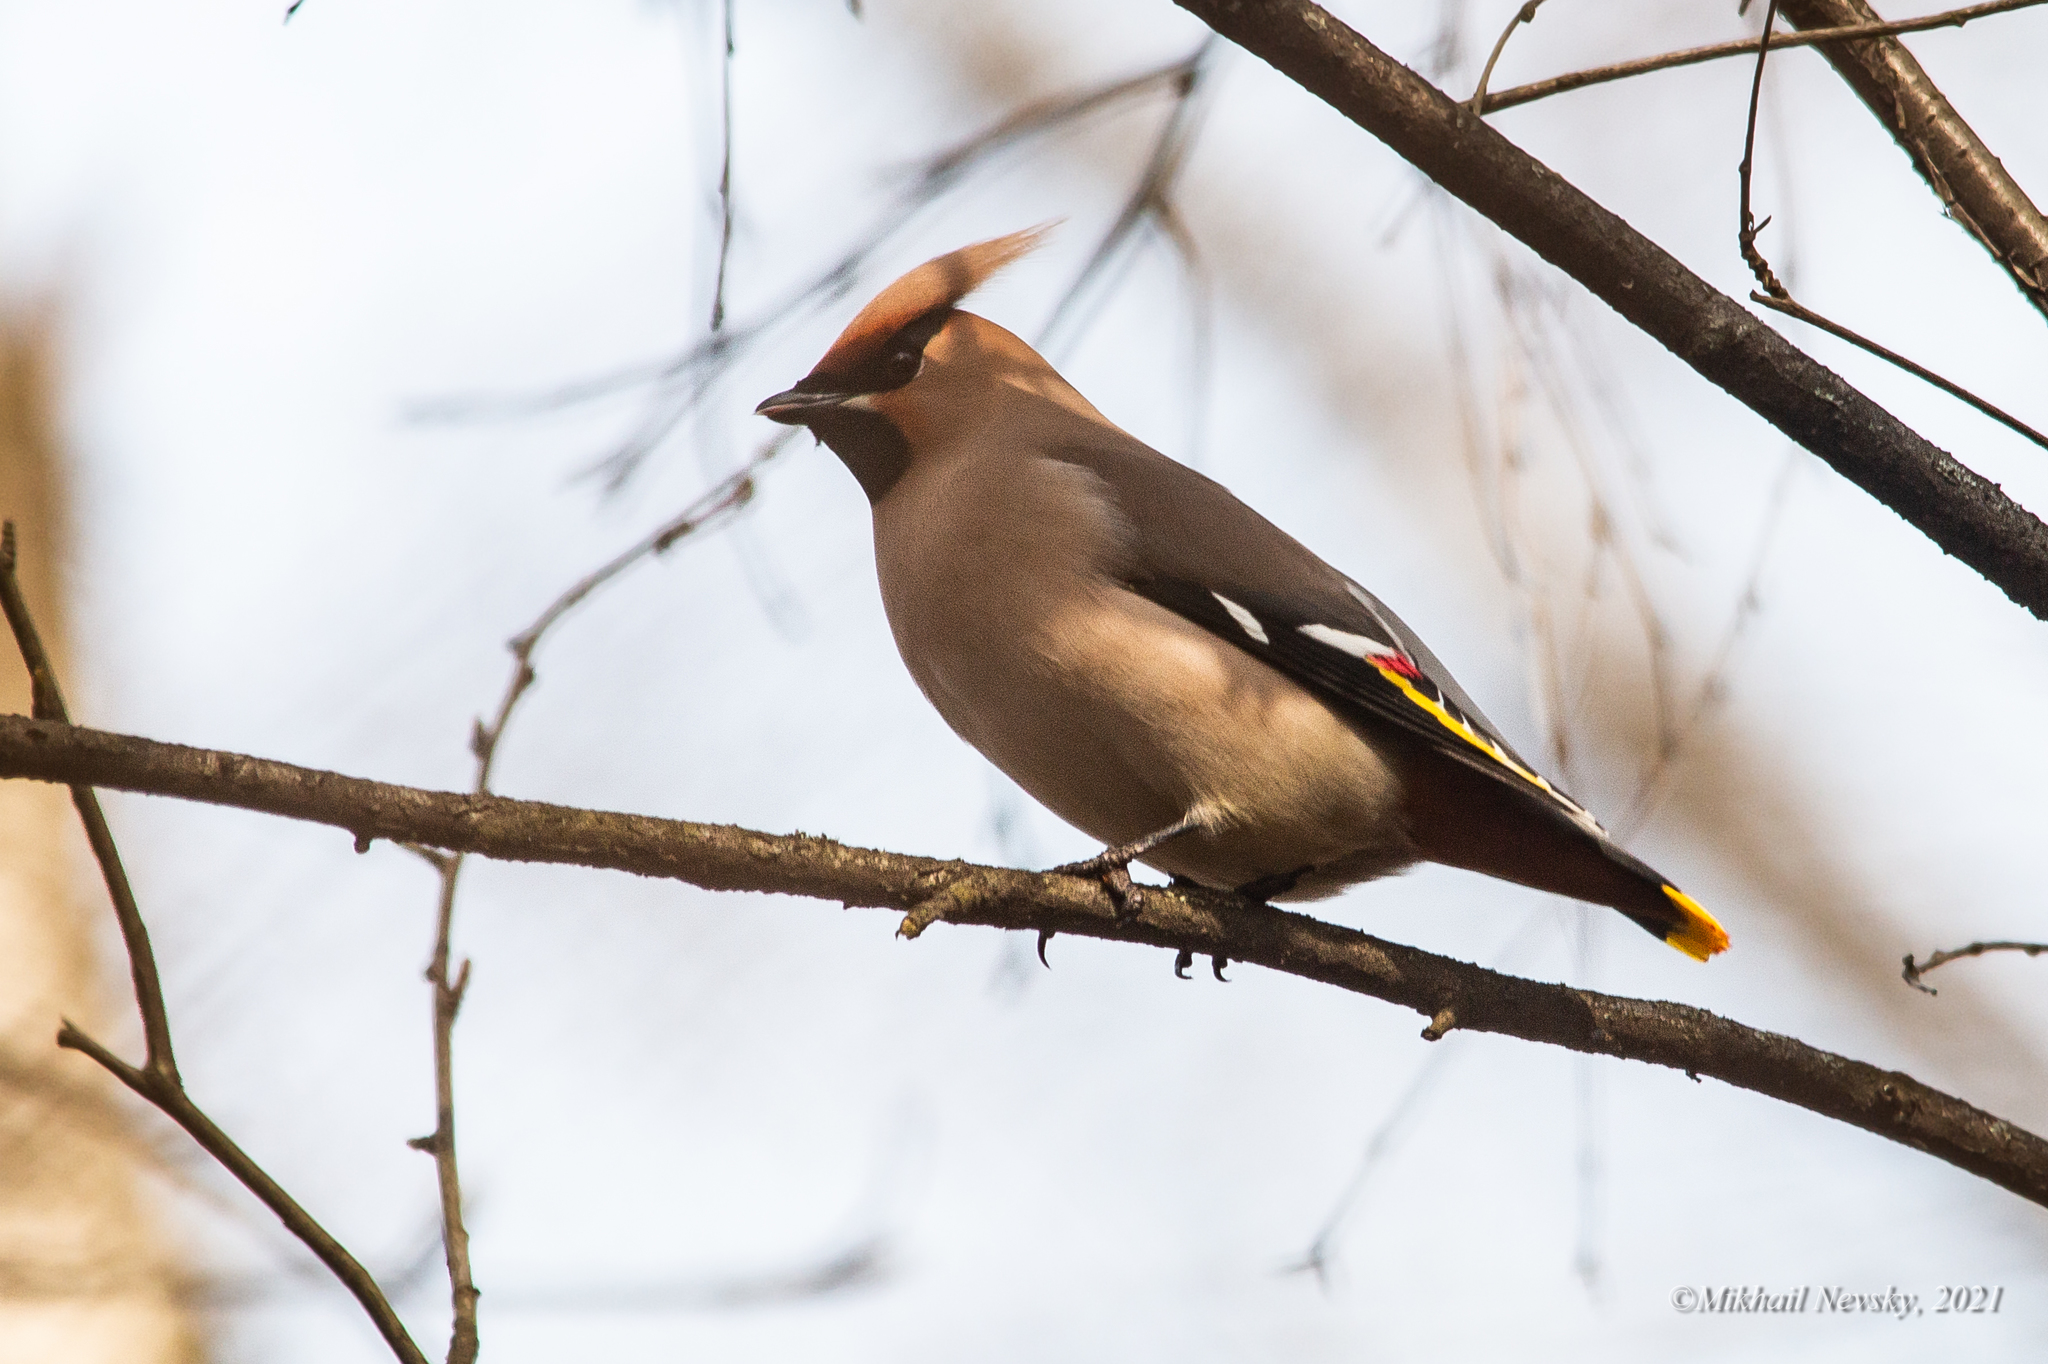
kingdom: Animalia
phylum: Chordata
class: Aves
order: Passeriformes
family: Bombycillidae
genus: Bombycilla
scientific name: Bombycilla garrulus
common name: Bohemian waxwing
